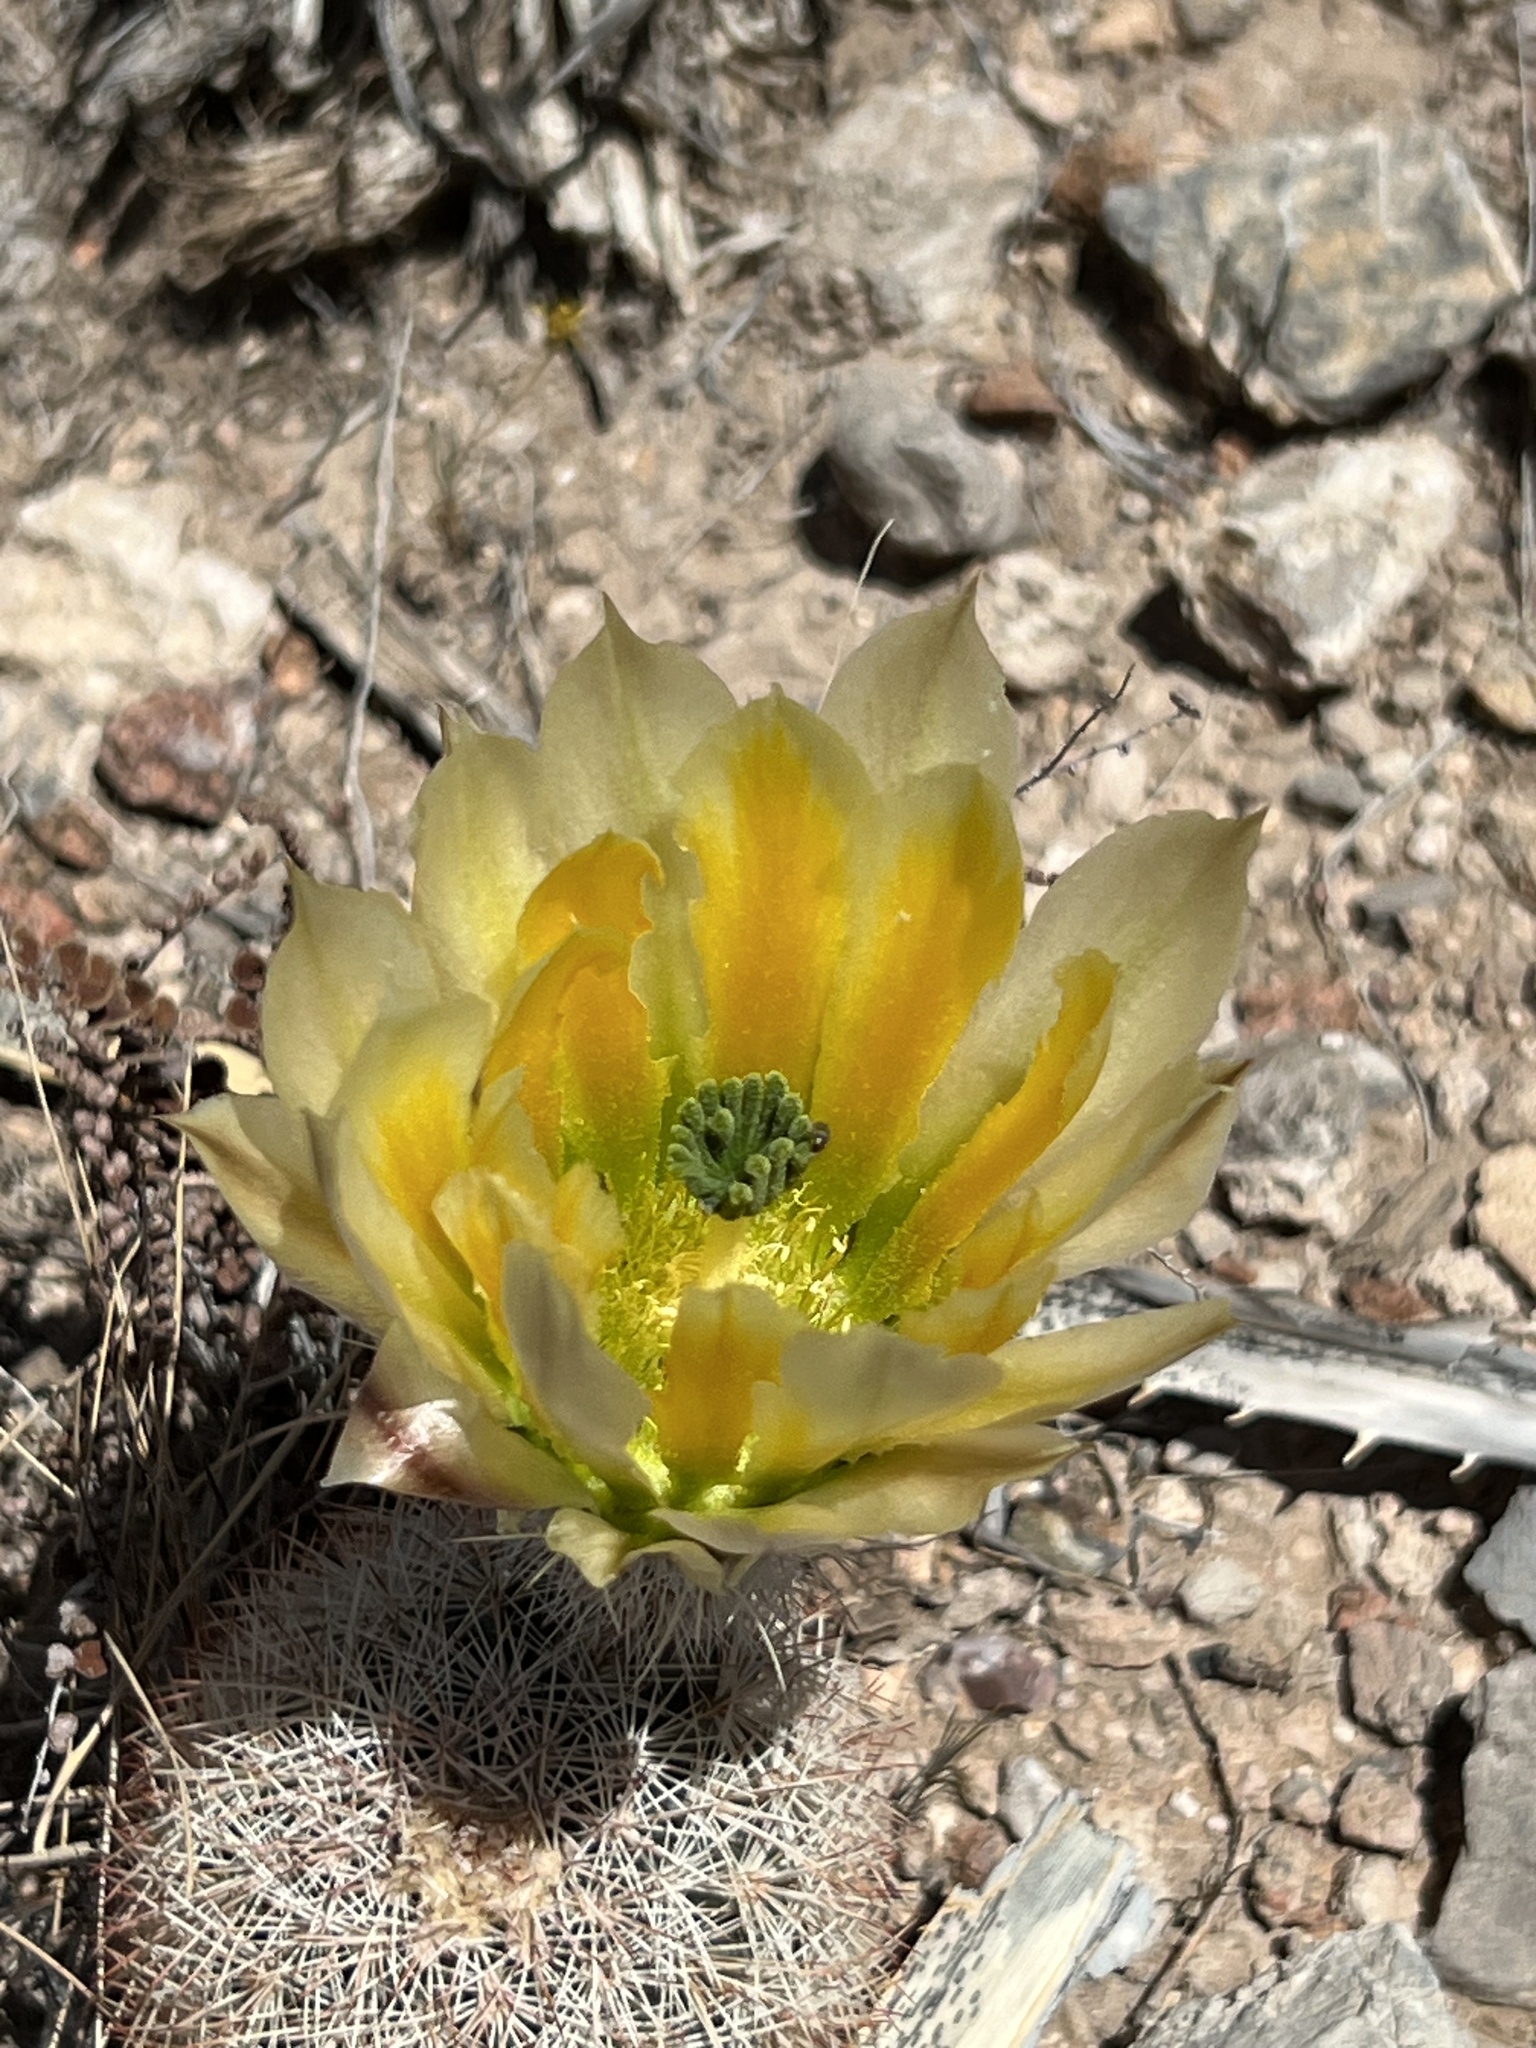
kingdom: Plantae
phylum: Tracheophyta
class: Magnoliopsida
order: Caryophyllales
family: Cactaceae
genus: Echinocereus
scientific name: Echinocereus dasyacanthus
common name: Spiny hedgehog cactus
